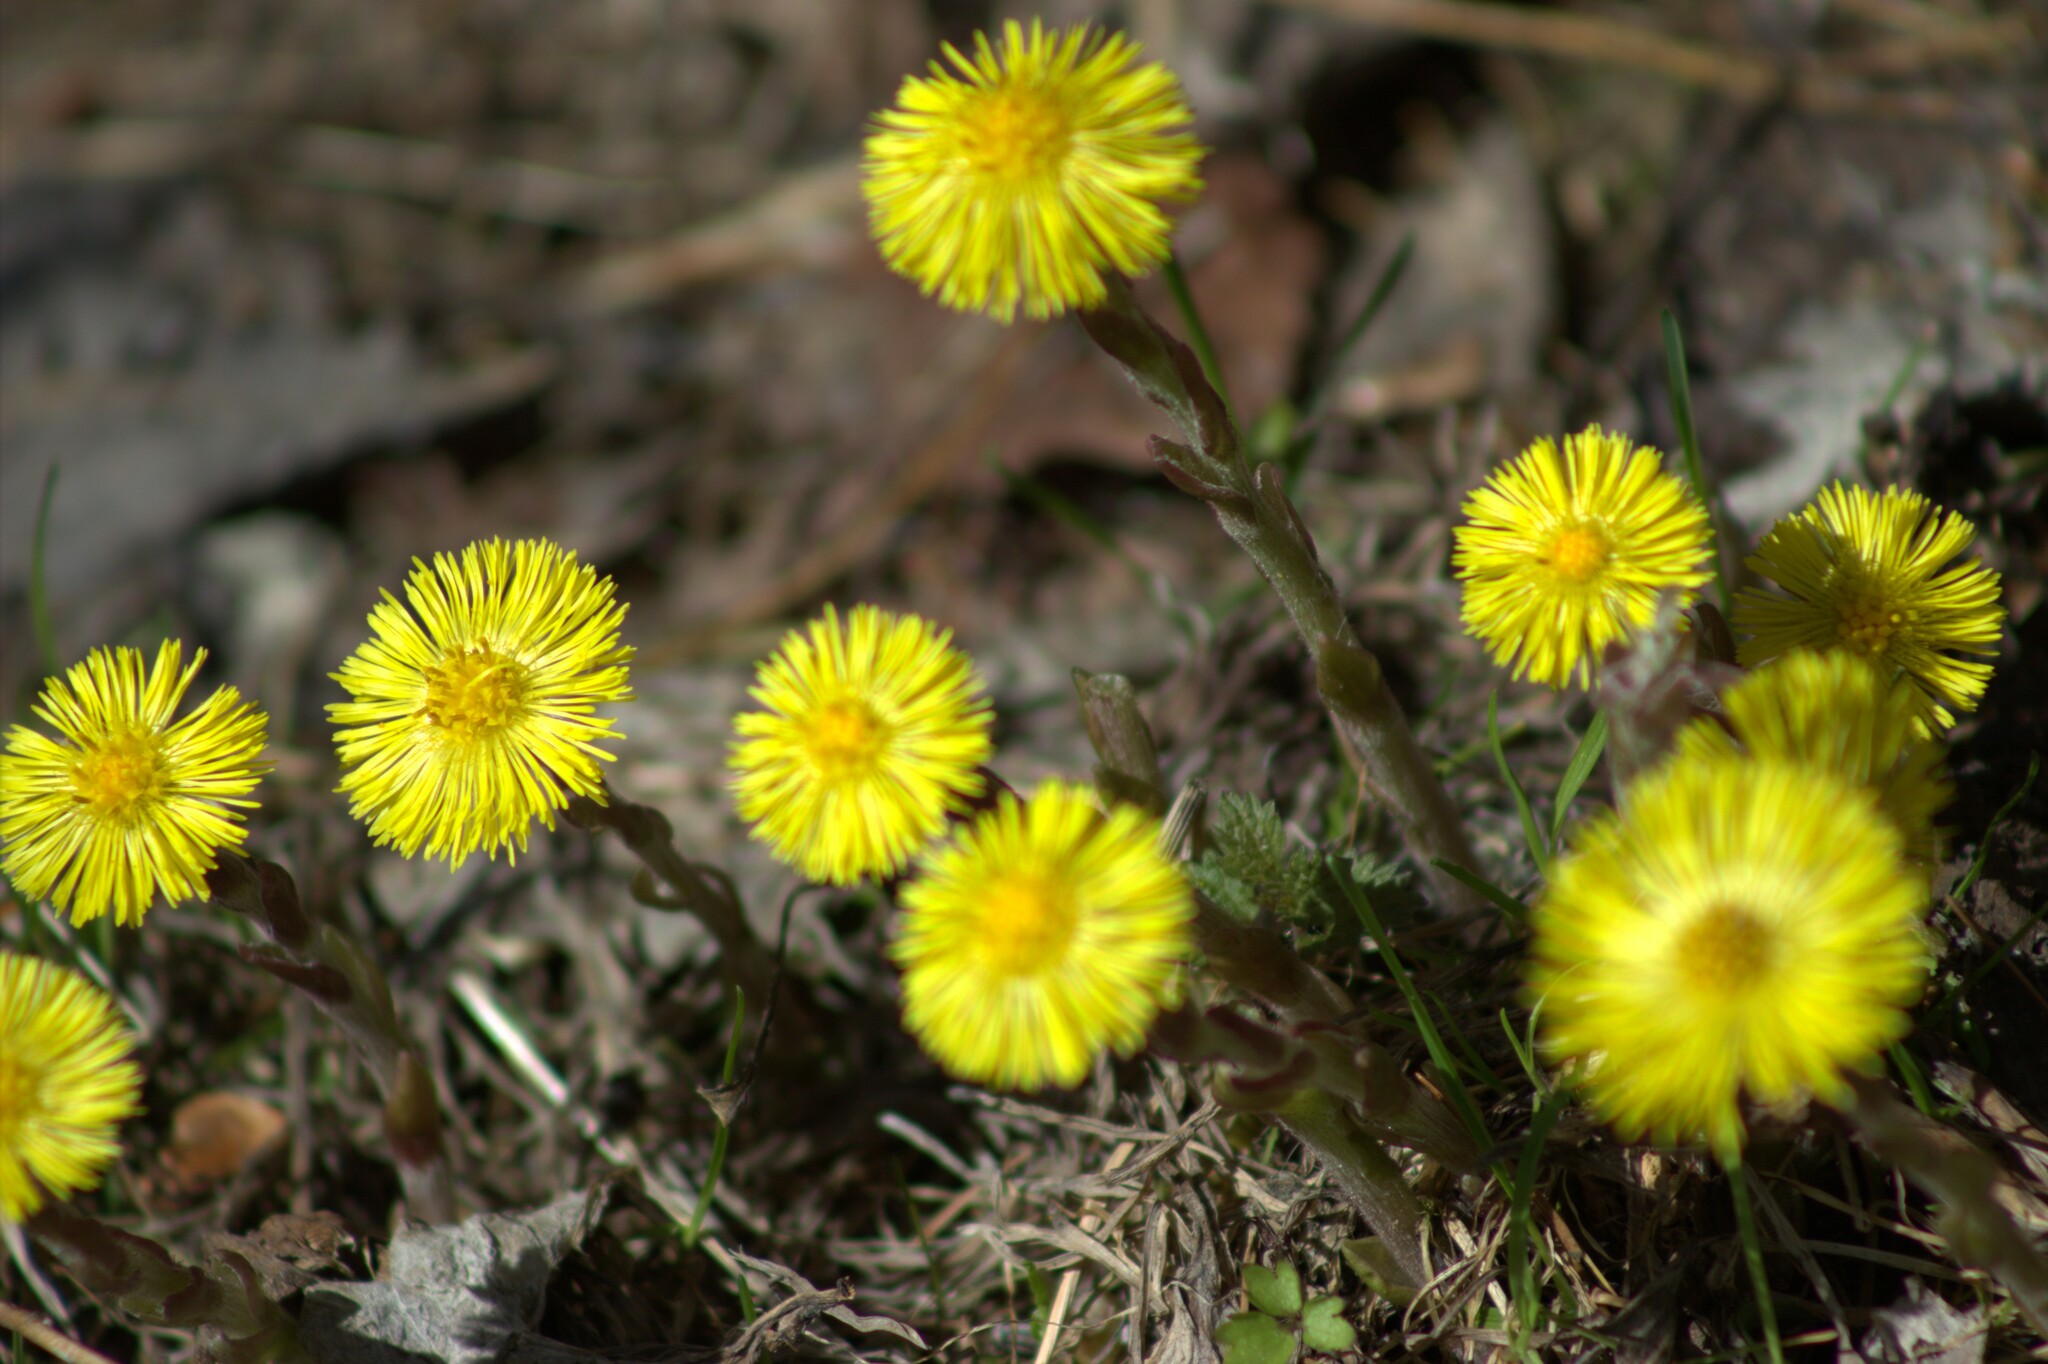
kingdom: Plantae
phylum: Tracheophyta
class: Magnoliopsida
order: Asterales
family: Asteraceae
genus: Tussilago
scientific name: Tussilago farfara
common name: Coltsfoot
